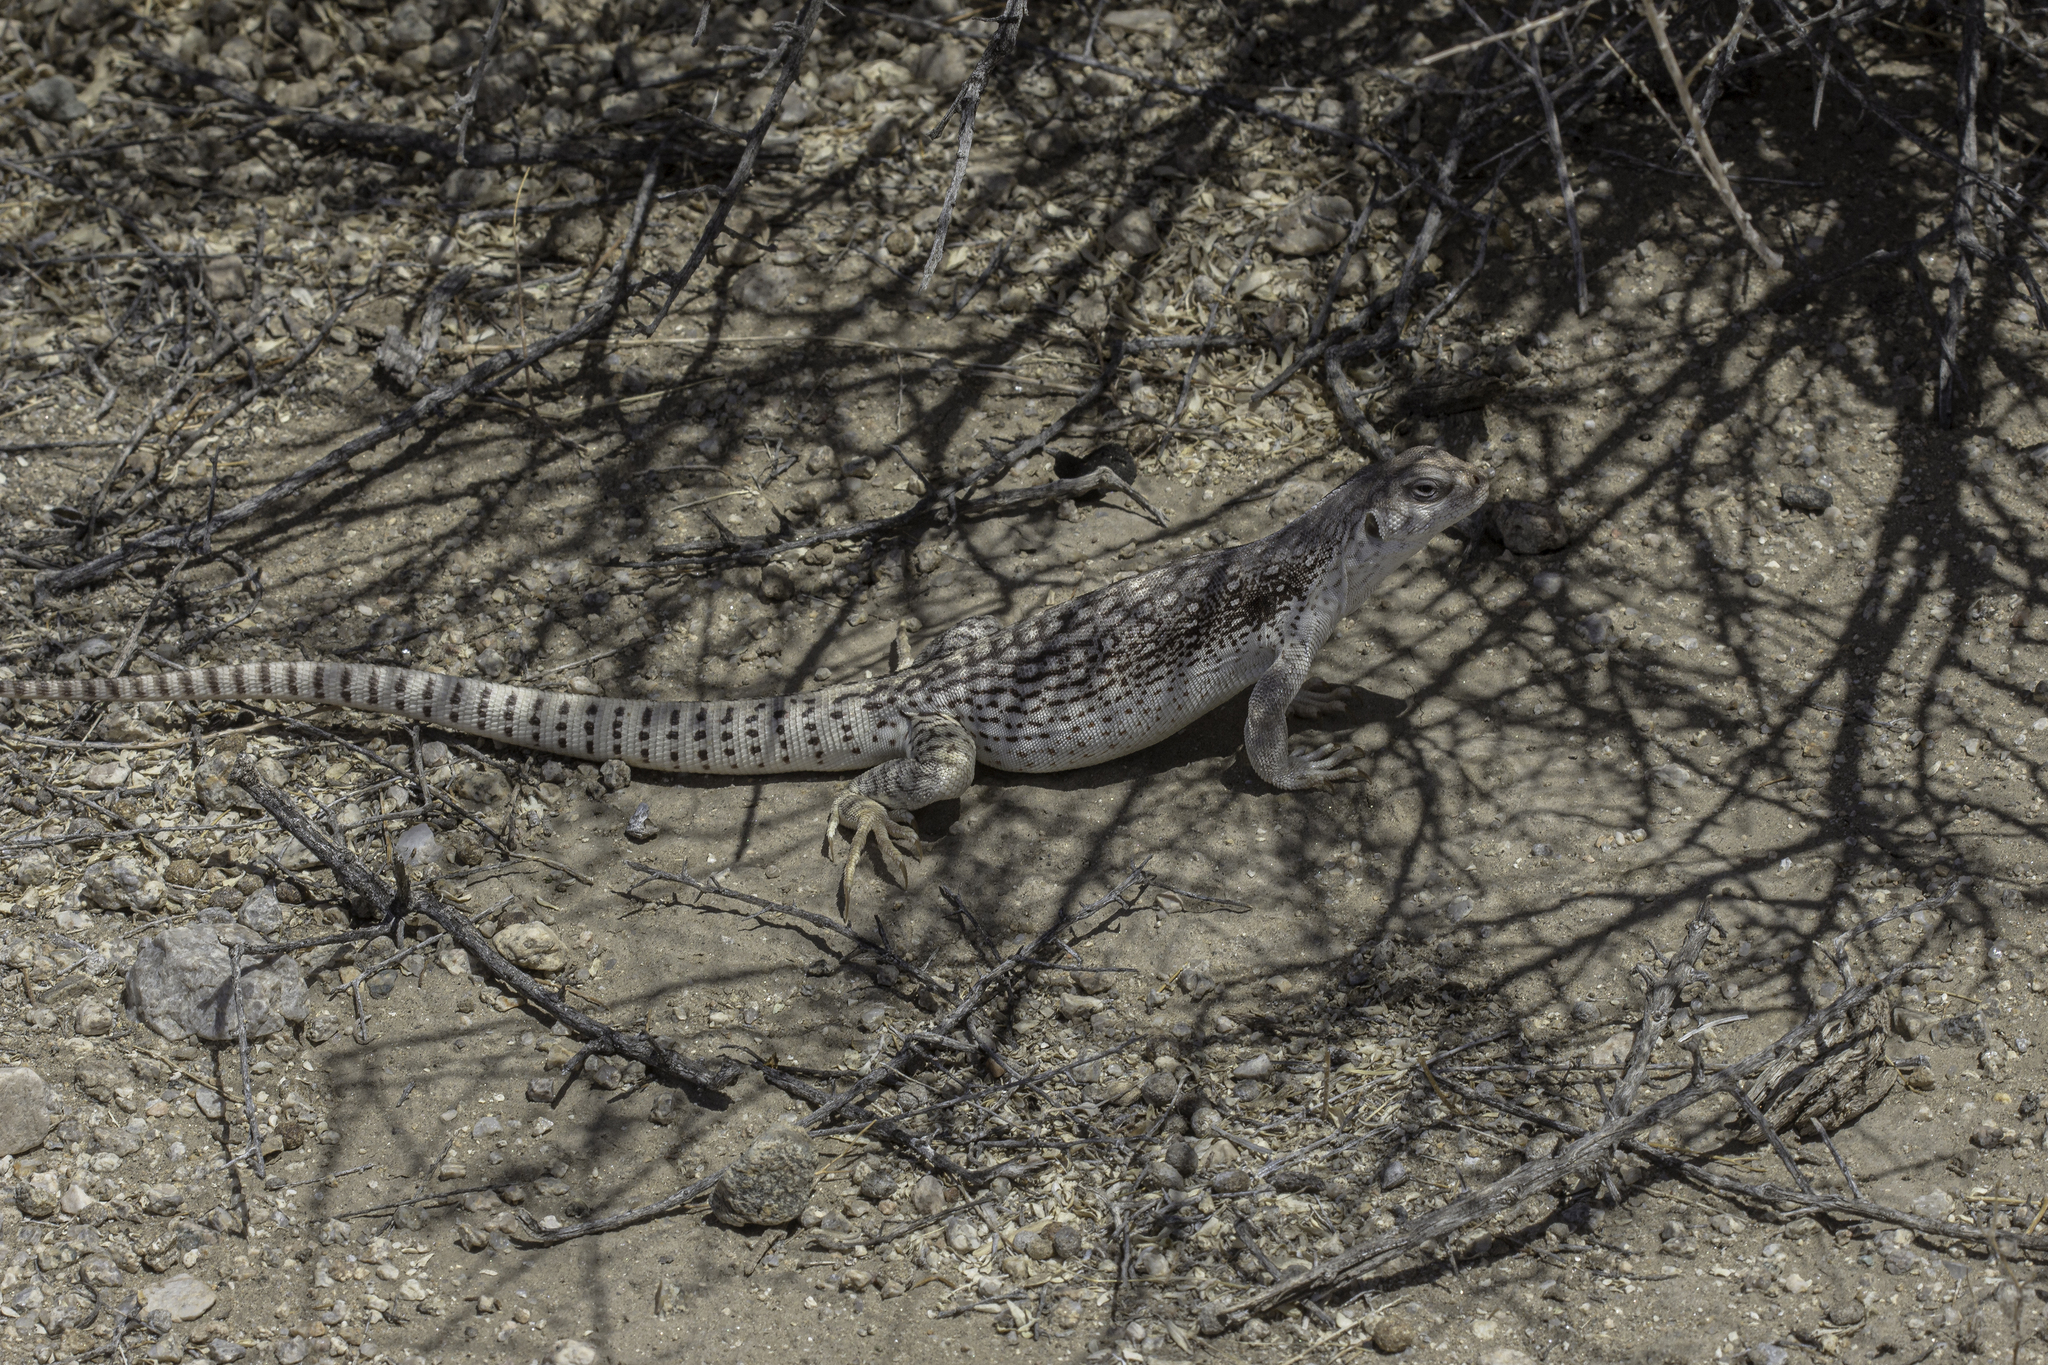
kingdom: Animalia
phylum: Chordata
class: Squamata
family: Iguanidae
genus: Dipsosaurus
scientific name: Dipsosaurus dorsalis
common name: Desert iguana
